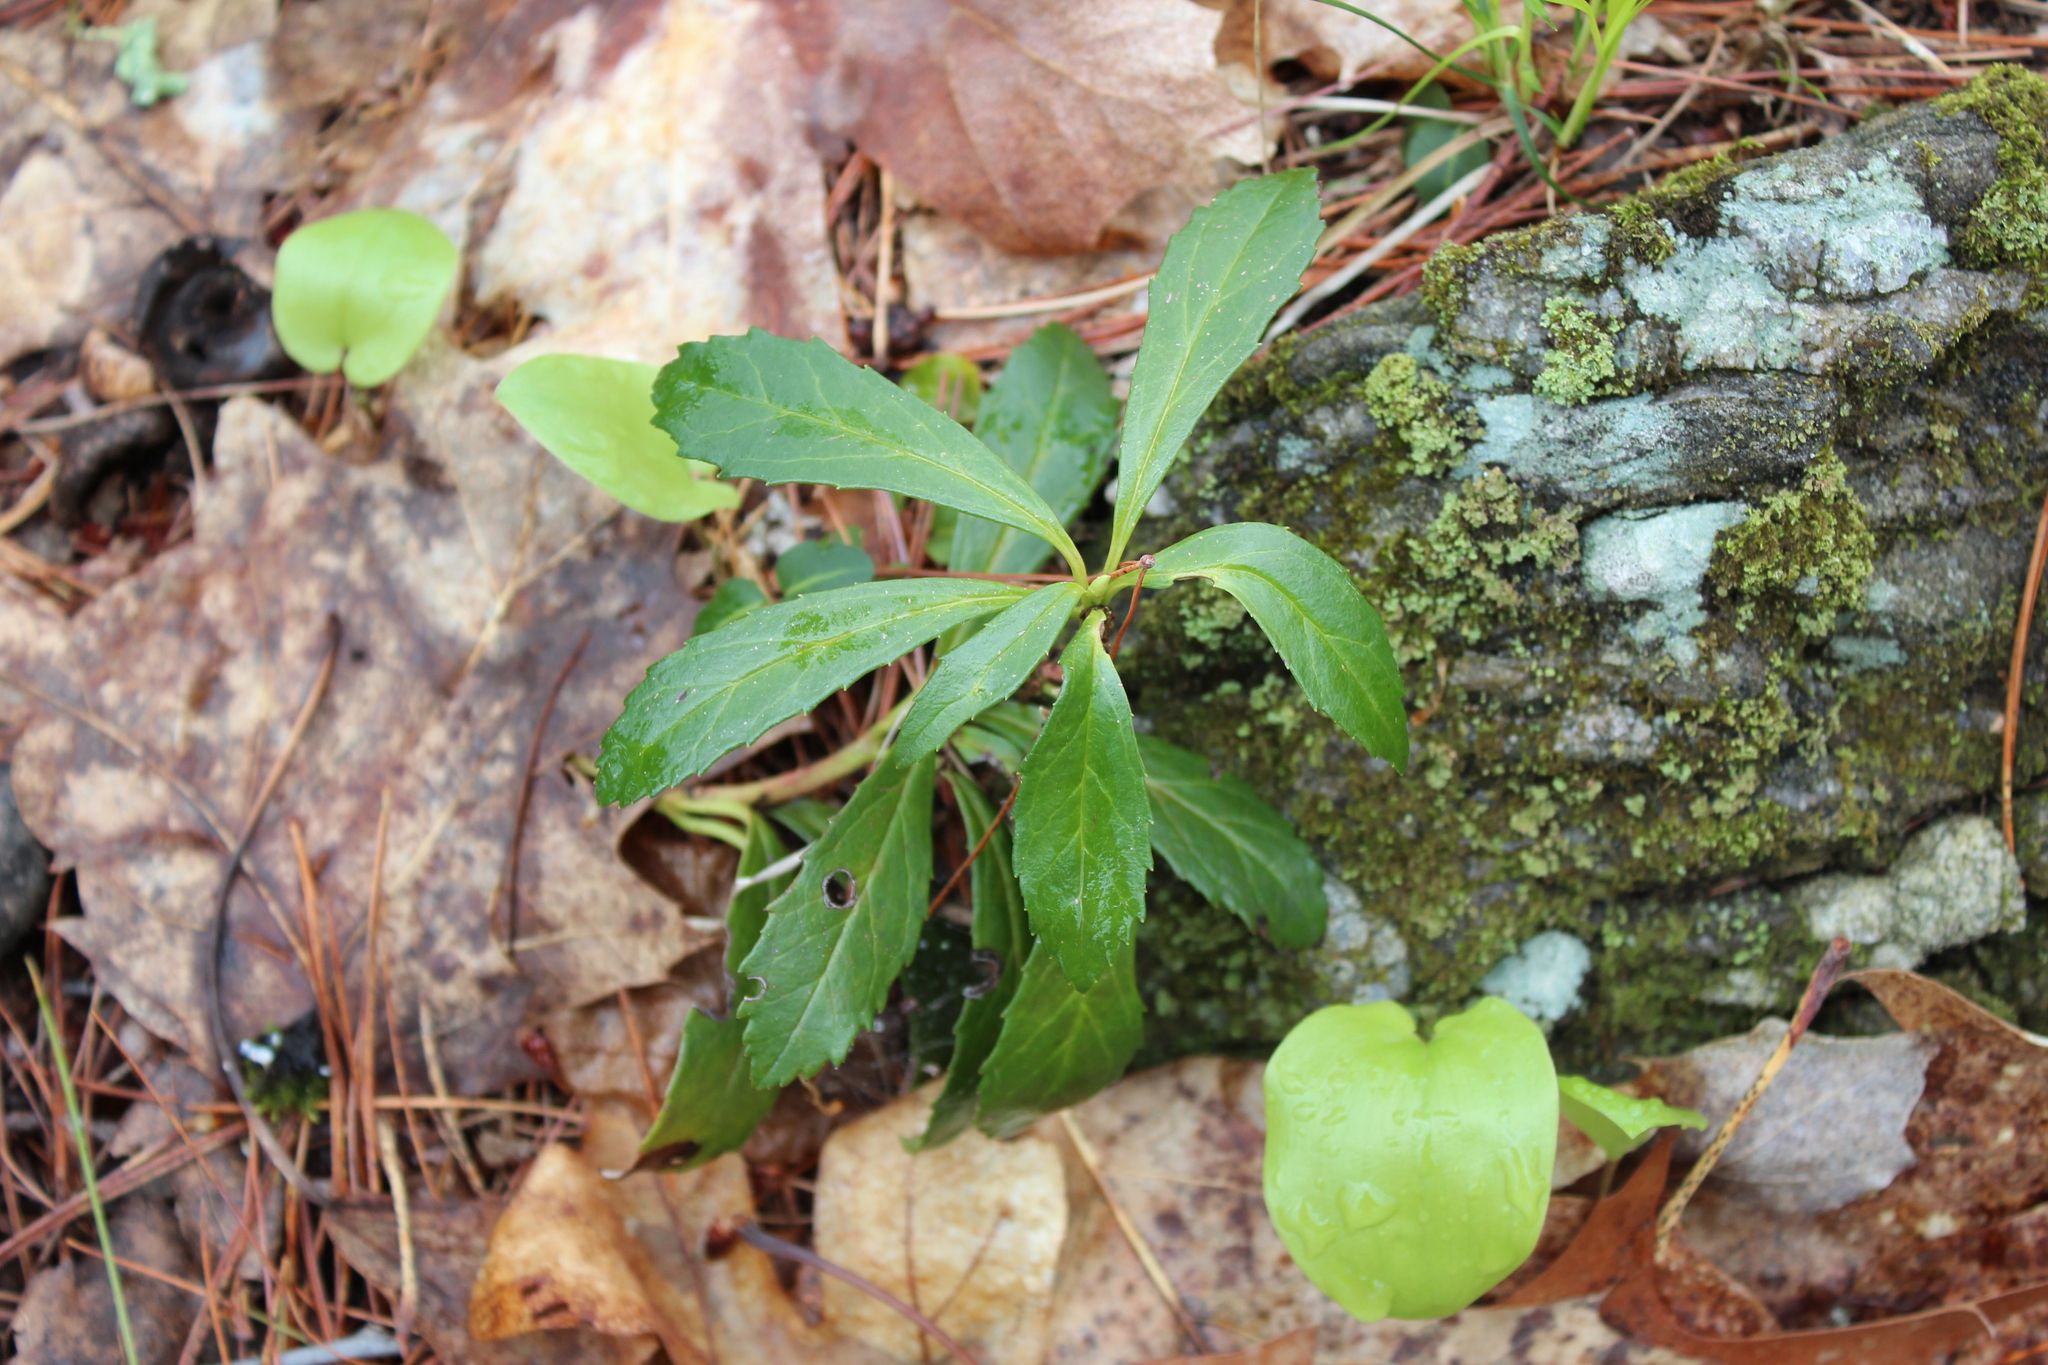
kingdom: Plantae
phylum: Tracheophyta
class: Magnoliopsida
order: Ericales
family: Ericaceae
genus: Chimaphila
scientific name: Chimaphila umbellata
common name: Pipsissewa
